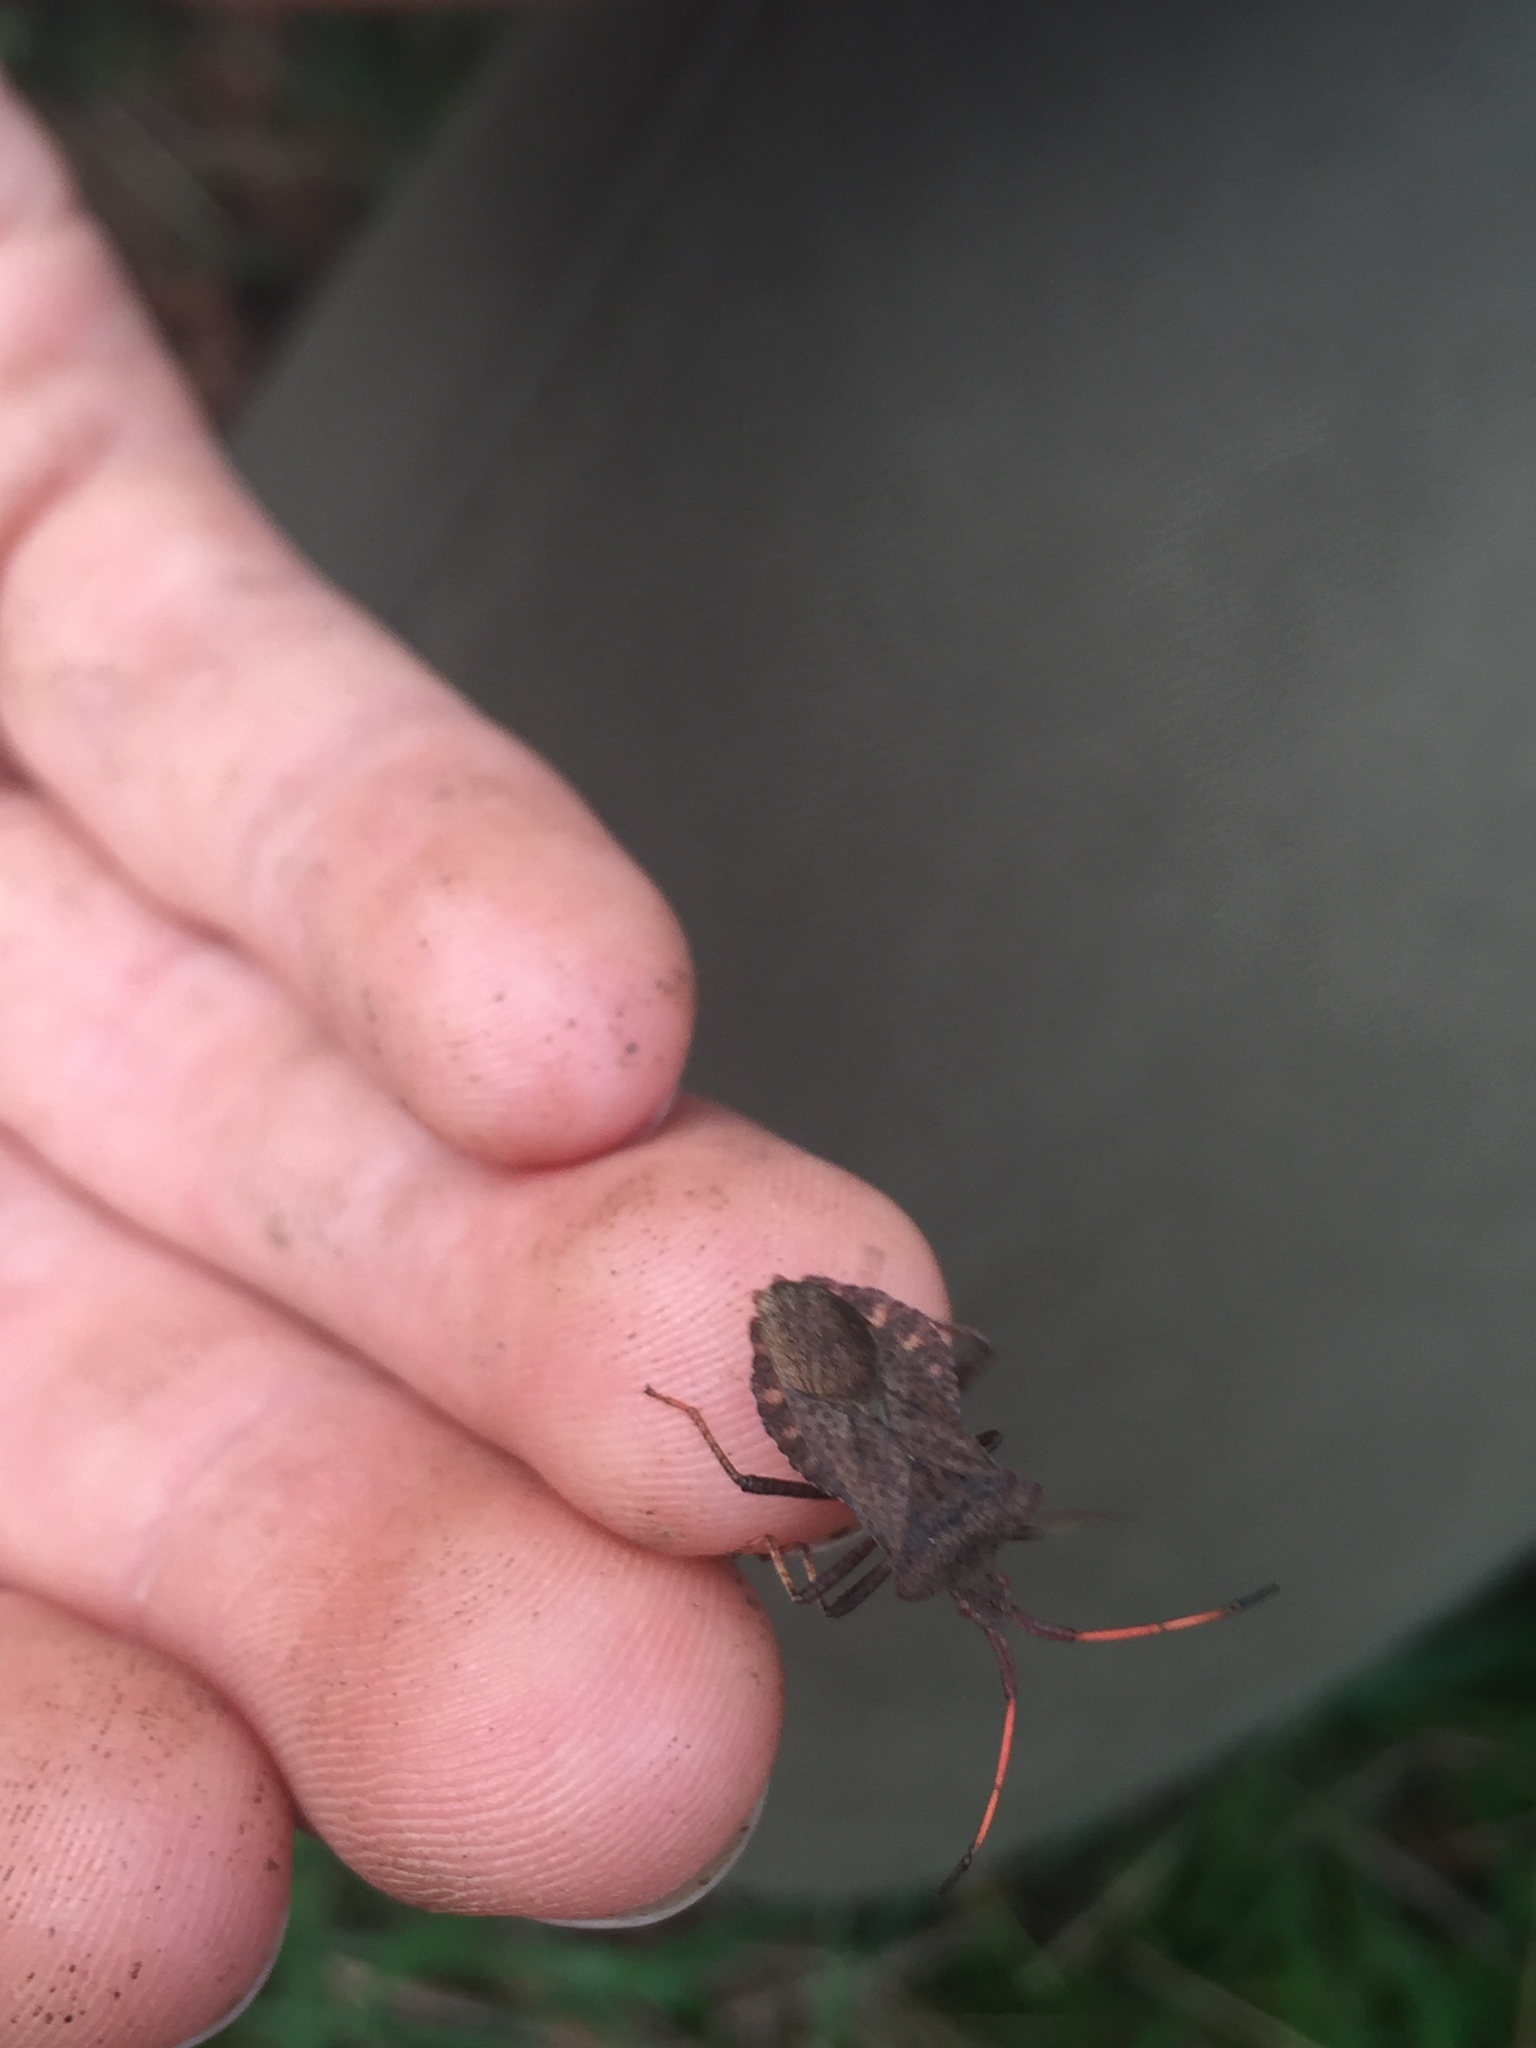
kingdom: Animalia
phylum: Arthropoda
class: Insecta
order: Hemiptera
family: Coreidae
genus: Coreus
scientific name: Coreus marginatus
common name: Dock bug
